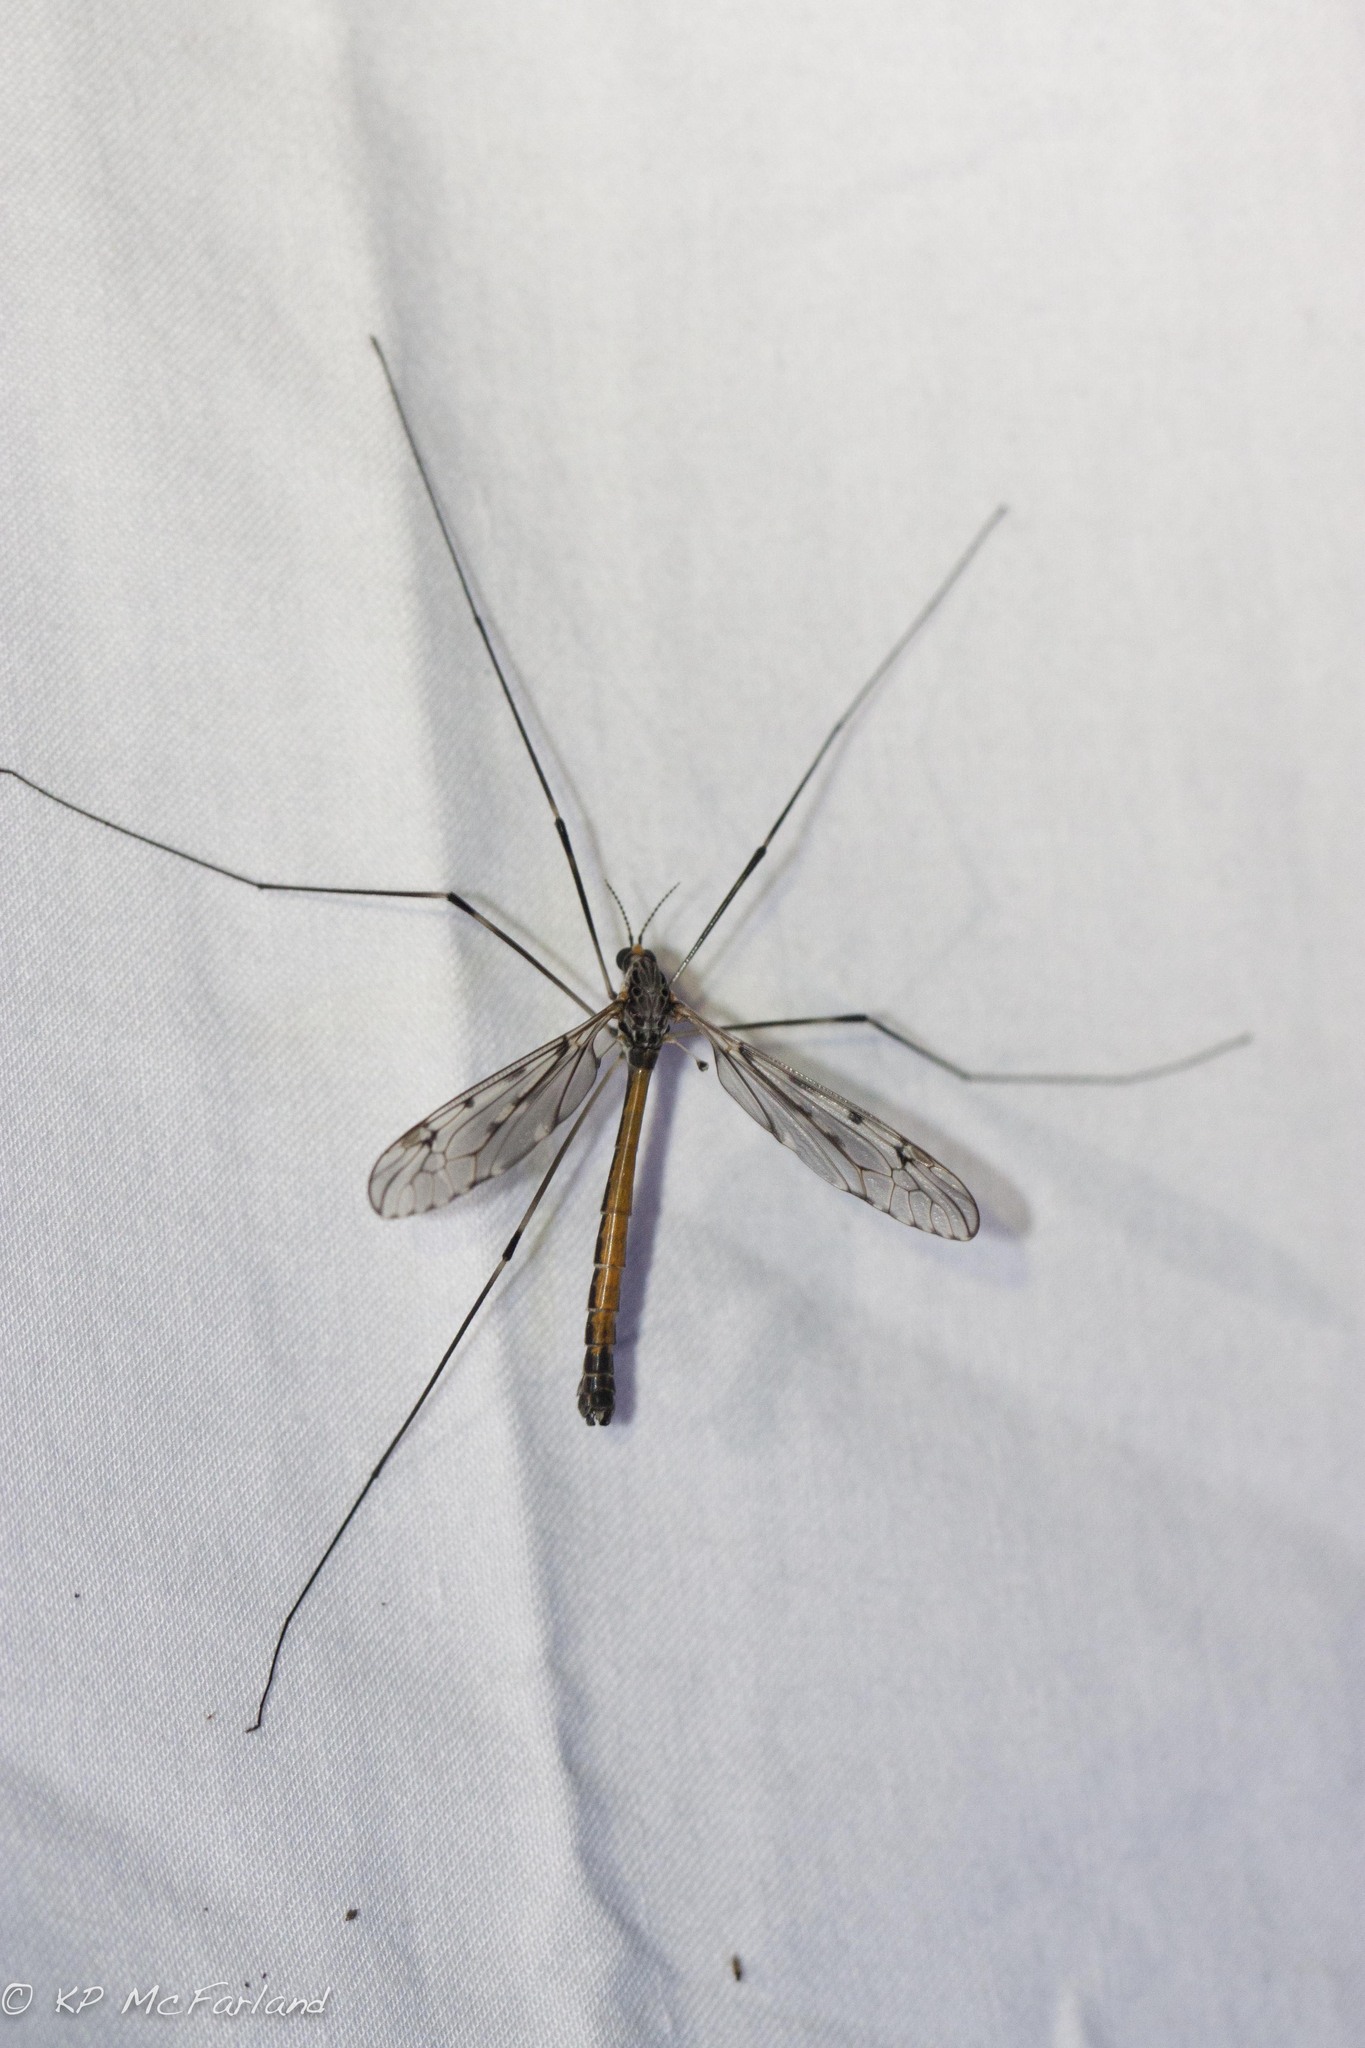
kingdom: Animalia
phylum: Arthropoda
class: Insecta
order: Diptera
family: Tipulidae
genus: Tipula
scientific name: Tipula abdominalis
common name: Giant crane fly
